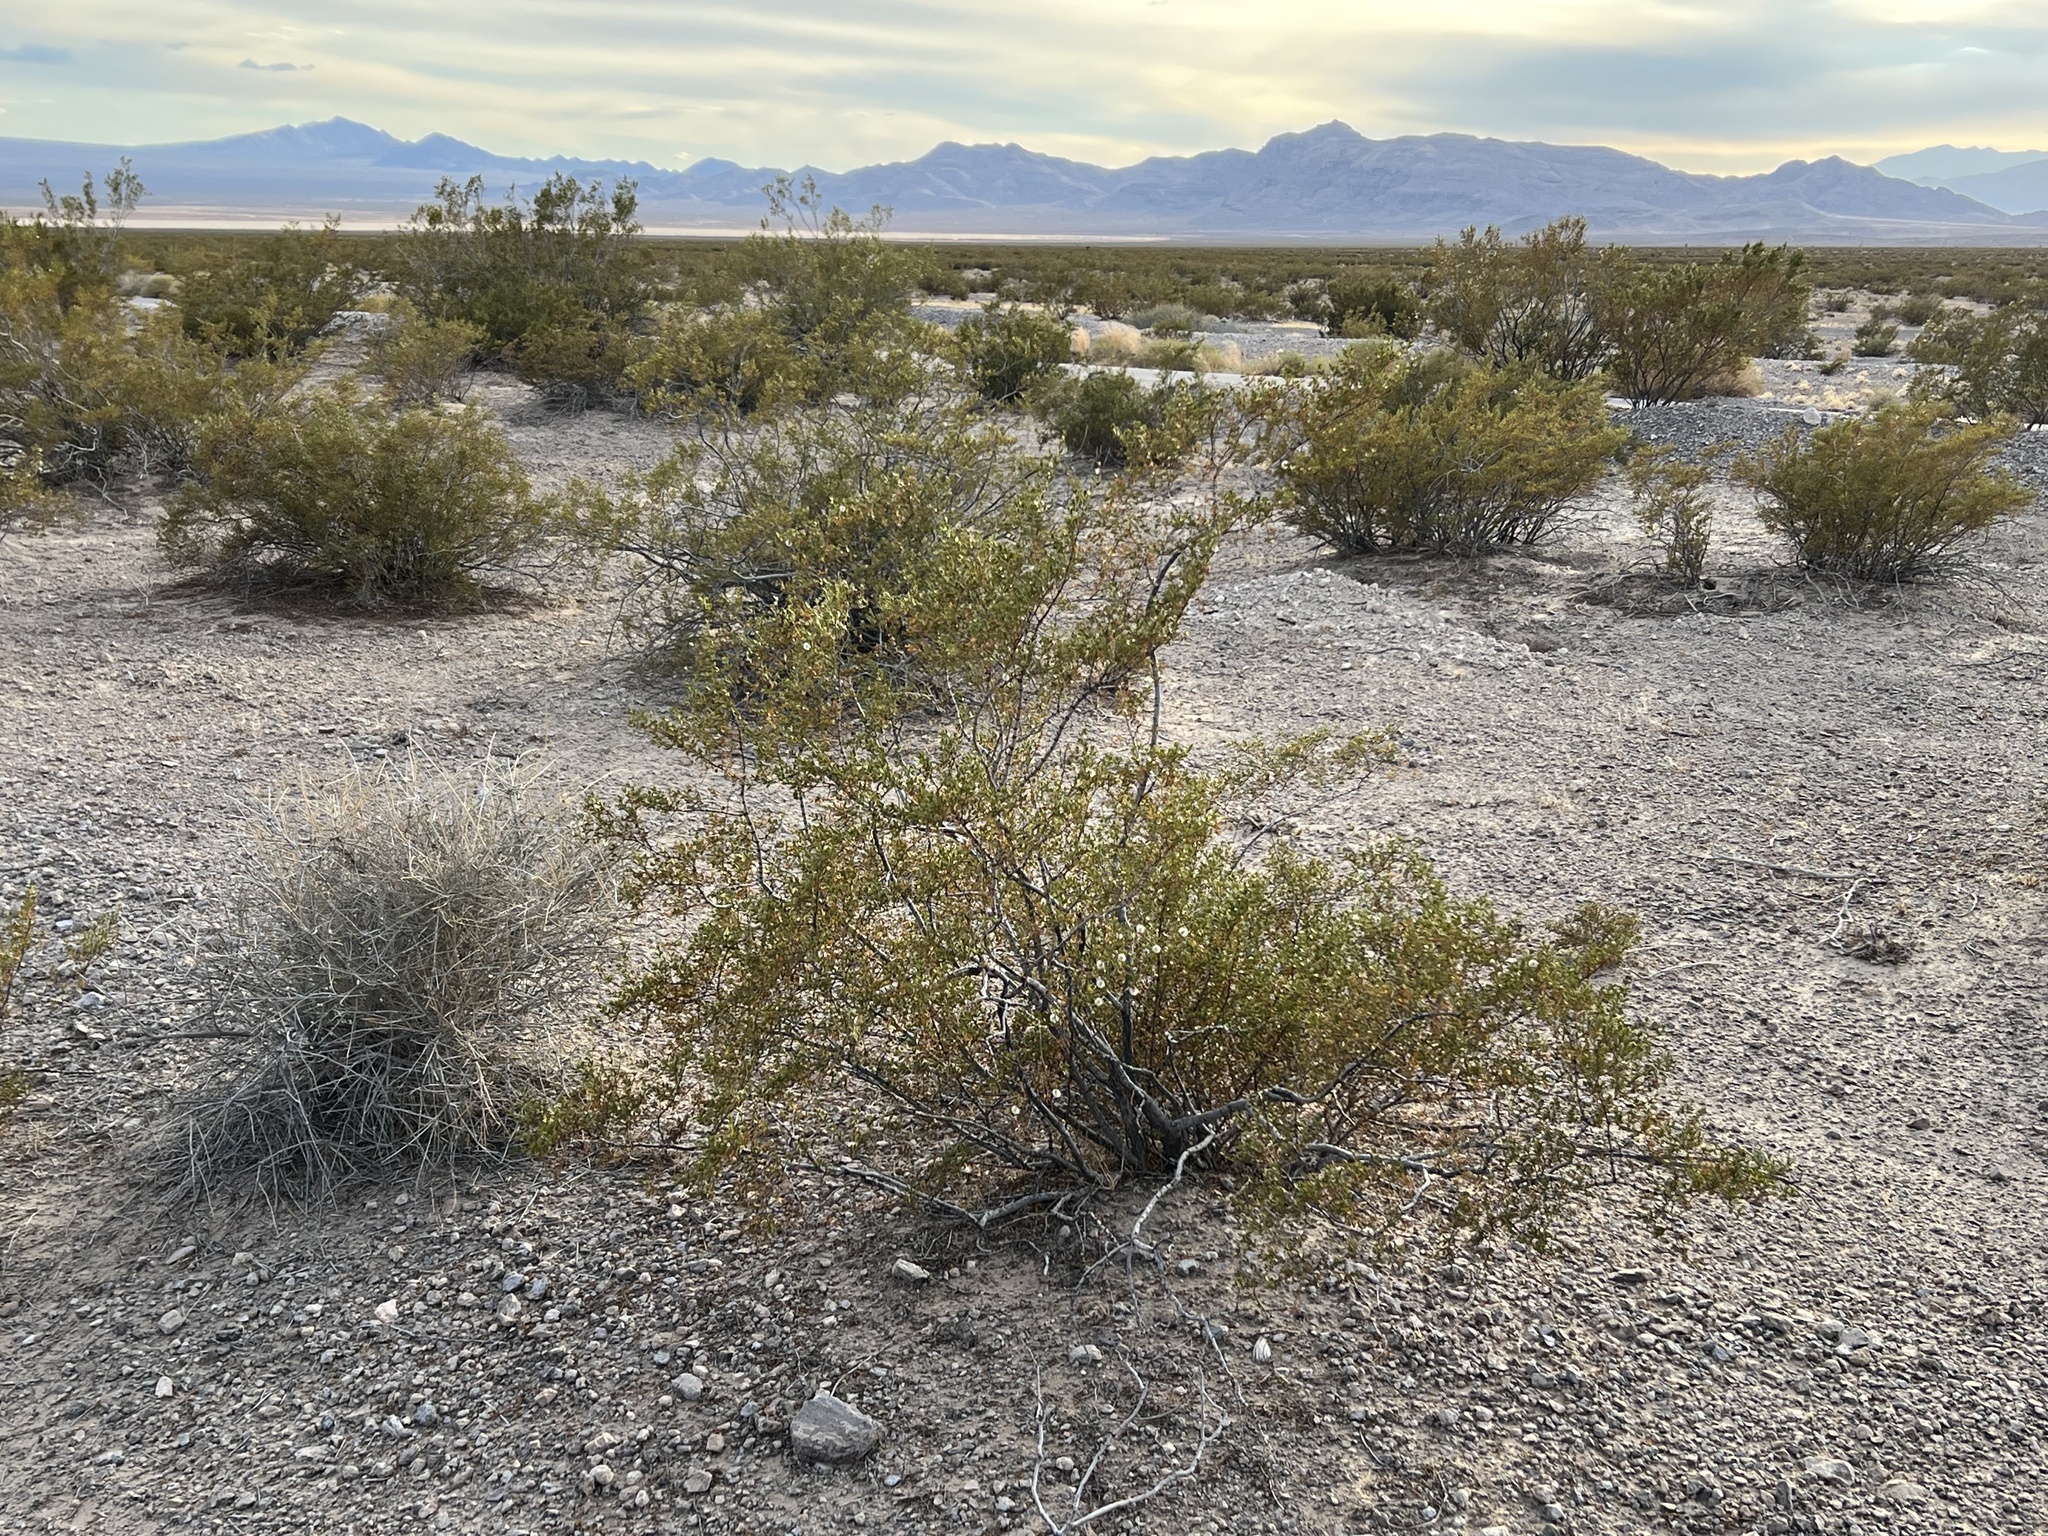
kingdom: Plantae
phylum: Tracheophyta
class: Magnoliopsida
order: Zygophyllales
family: Zygophyllaceae
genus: Larrea
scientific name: Larrea tridentata
